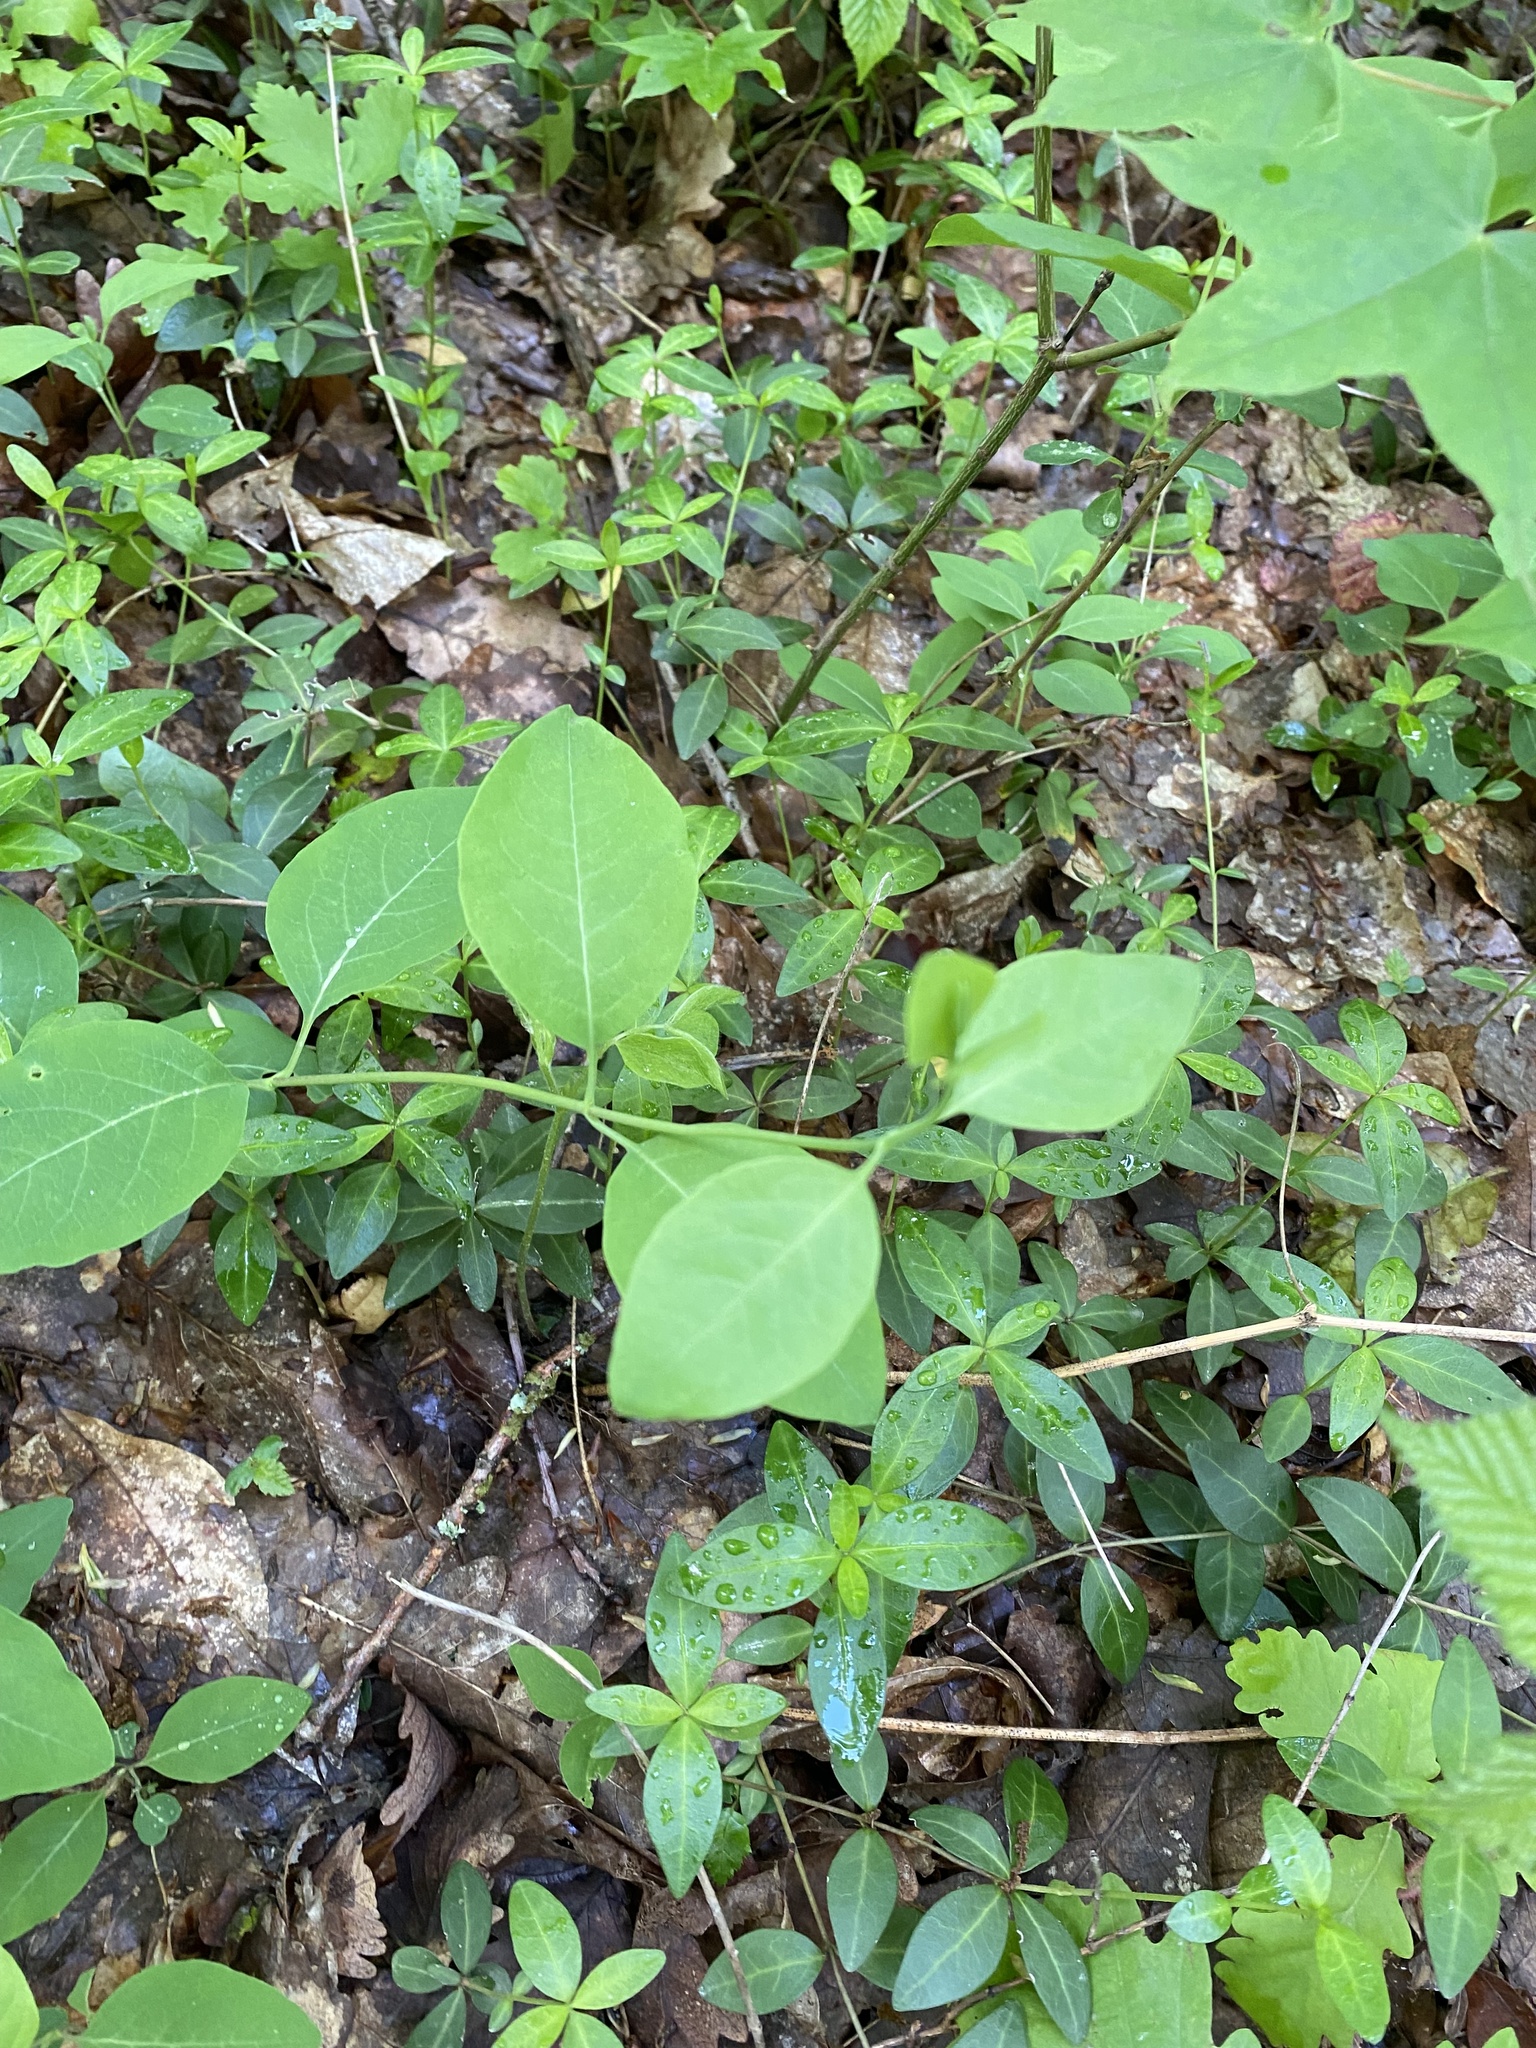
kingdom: Plantae
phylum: Tracheophyta
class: Magnoliopsida
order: Dipsacales
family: Caprifoliaceae
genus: Lonicera
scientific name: Lonicera caprifolium
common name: Perfoliate honeysuckle
